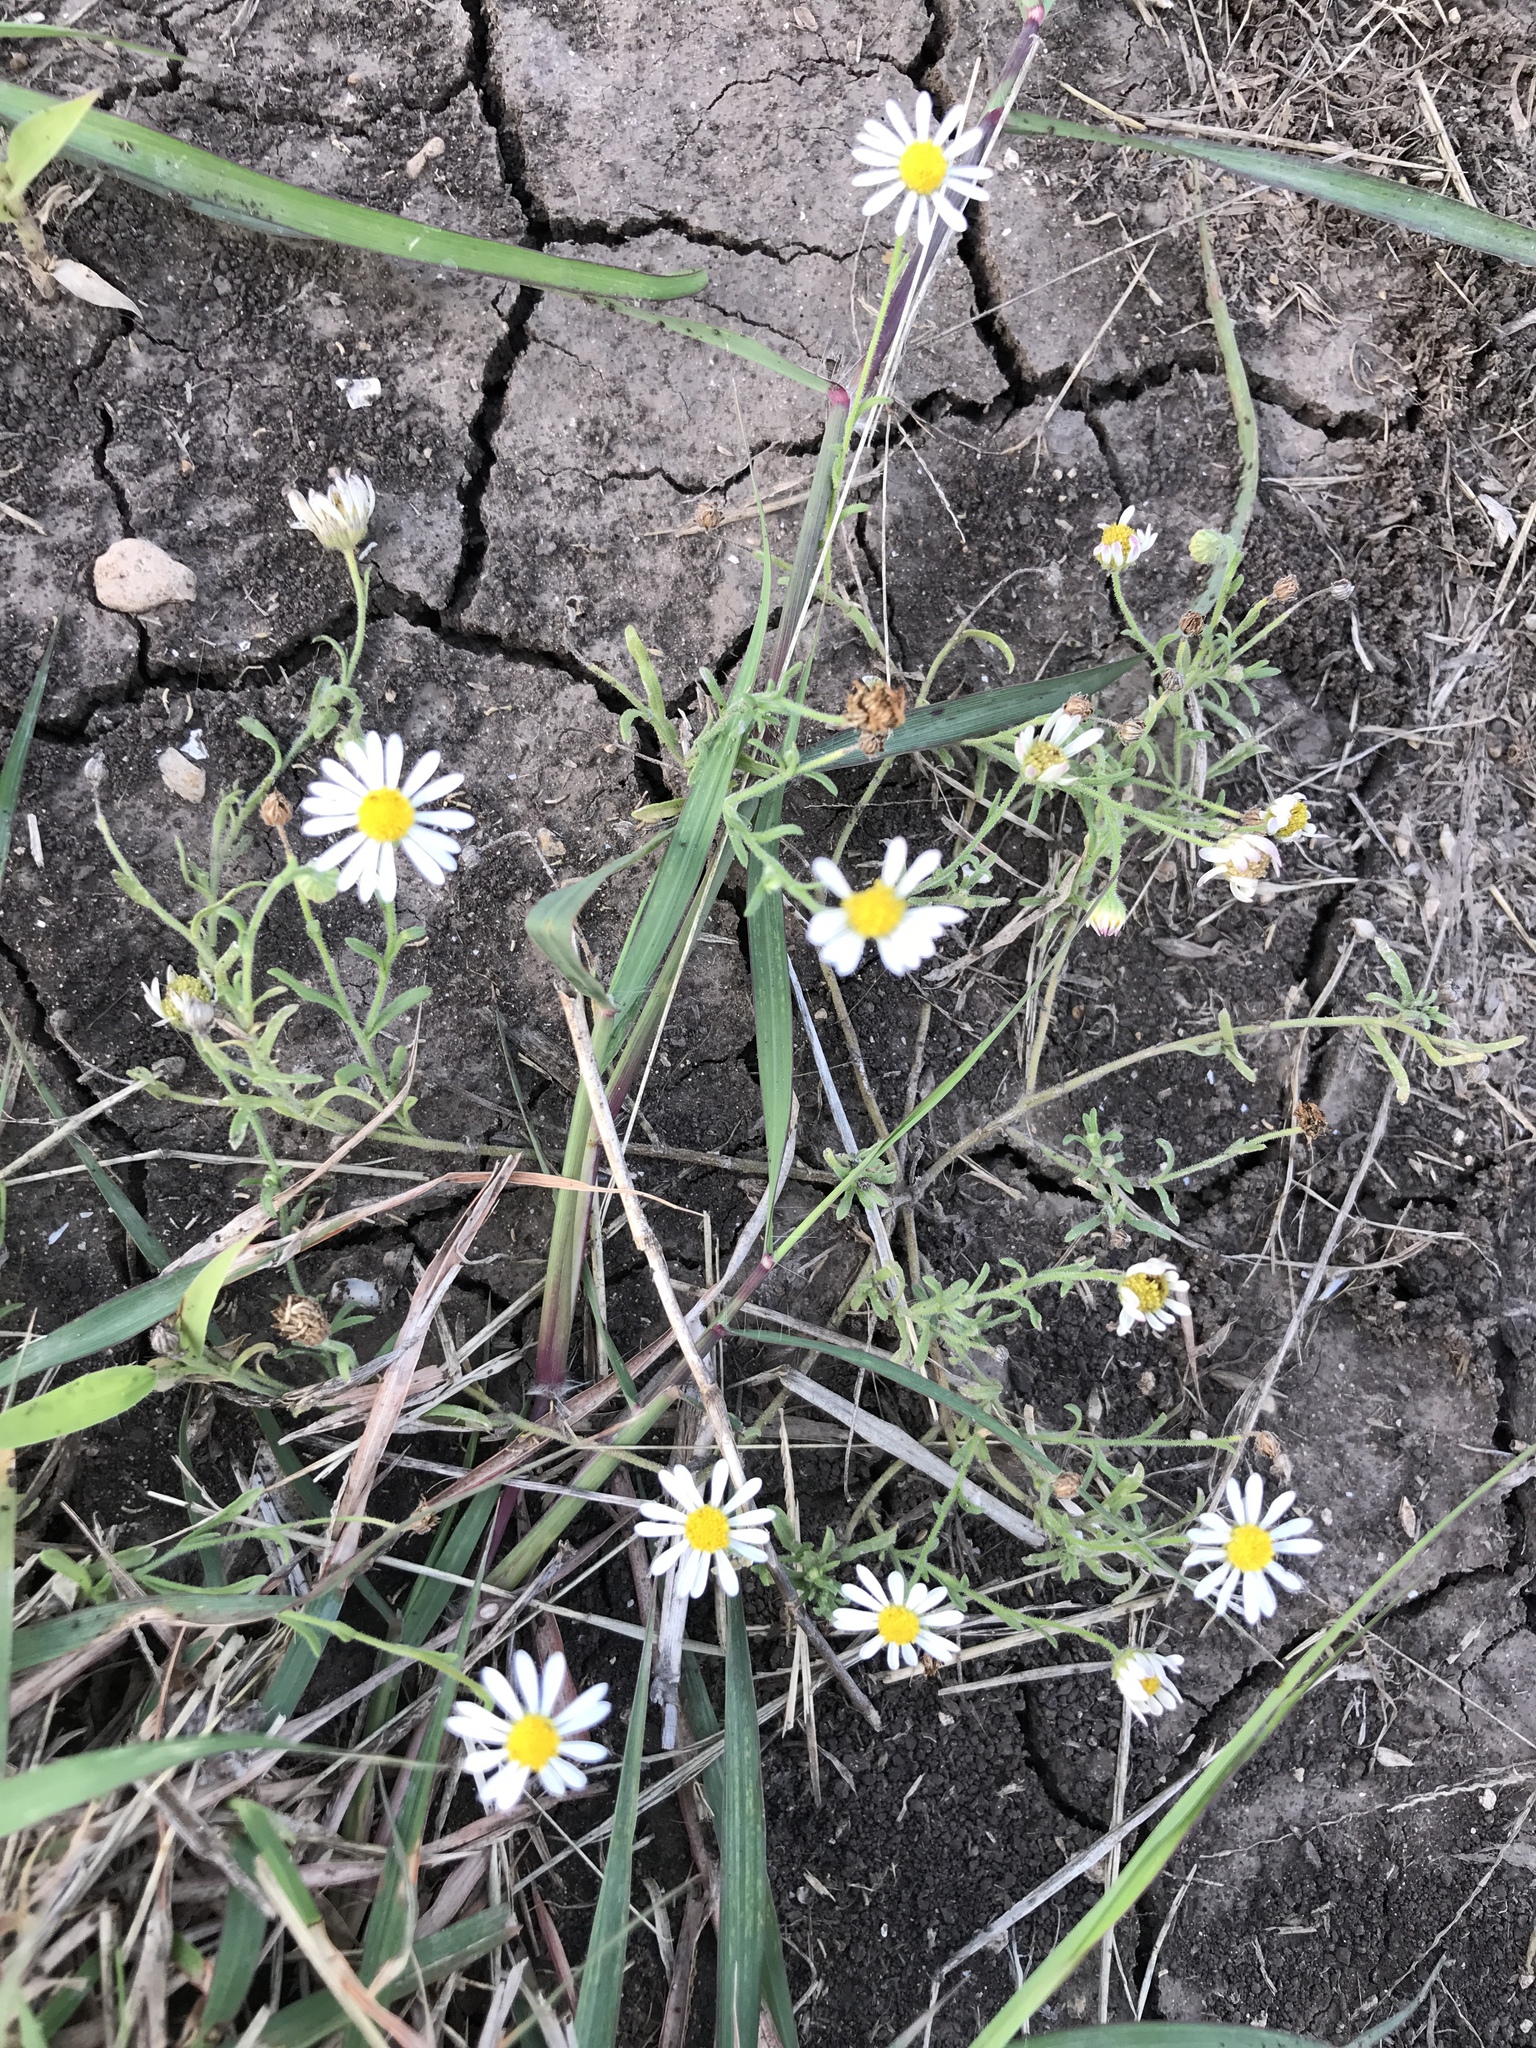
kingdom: Plantae
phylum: Tracheophyta
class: Magnoliopsida
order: Asterales
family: Asteraceae
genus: Symphyotrichum
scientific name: Symphyotrichum divaricatum
